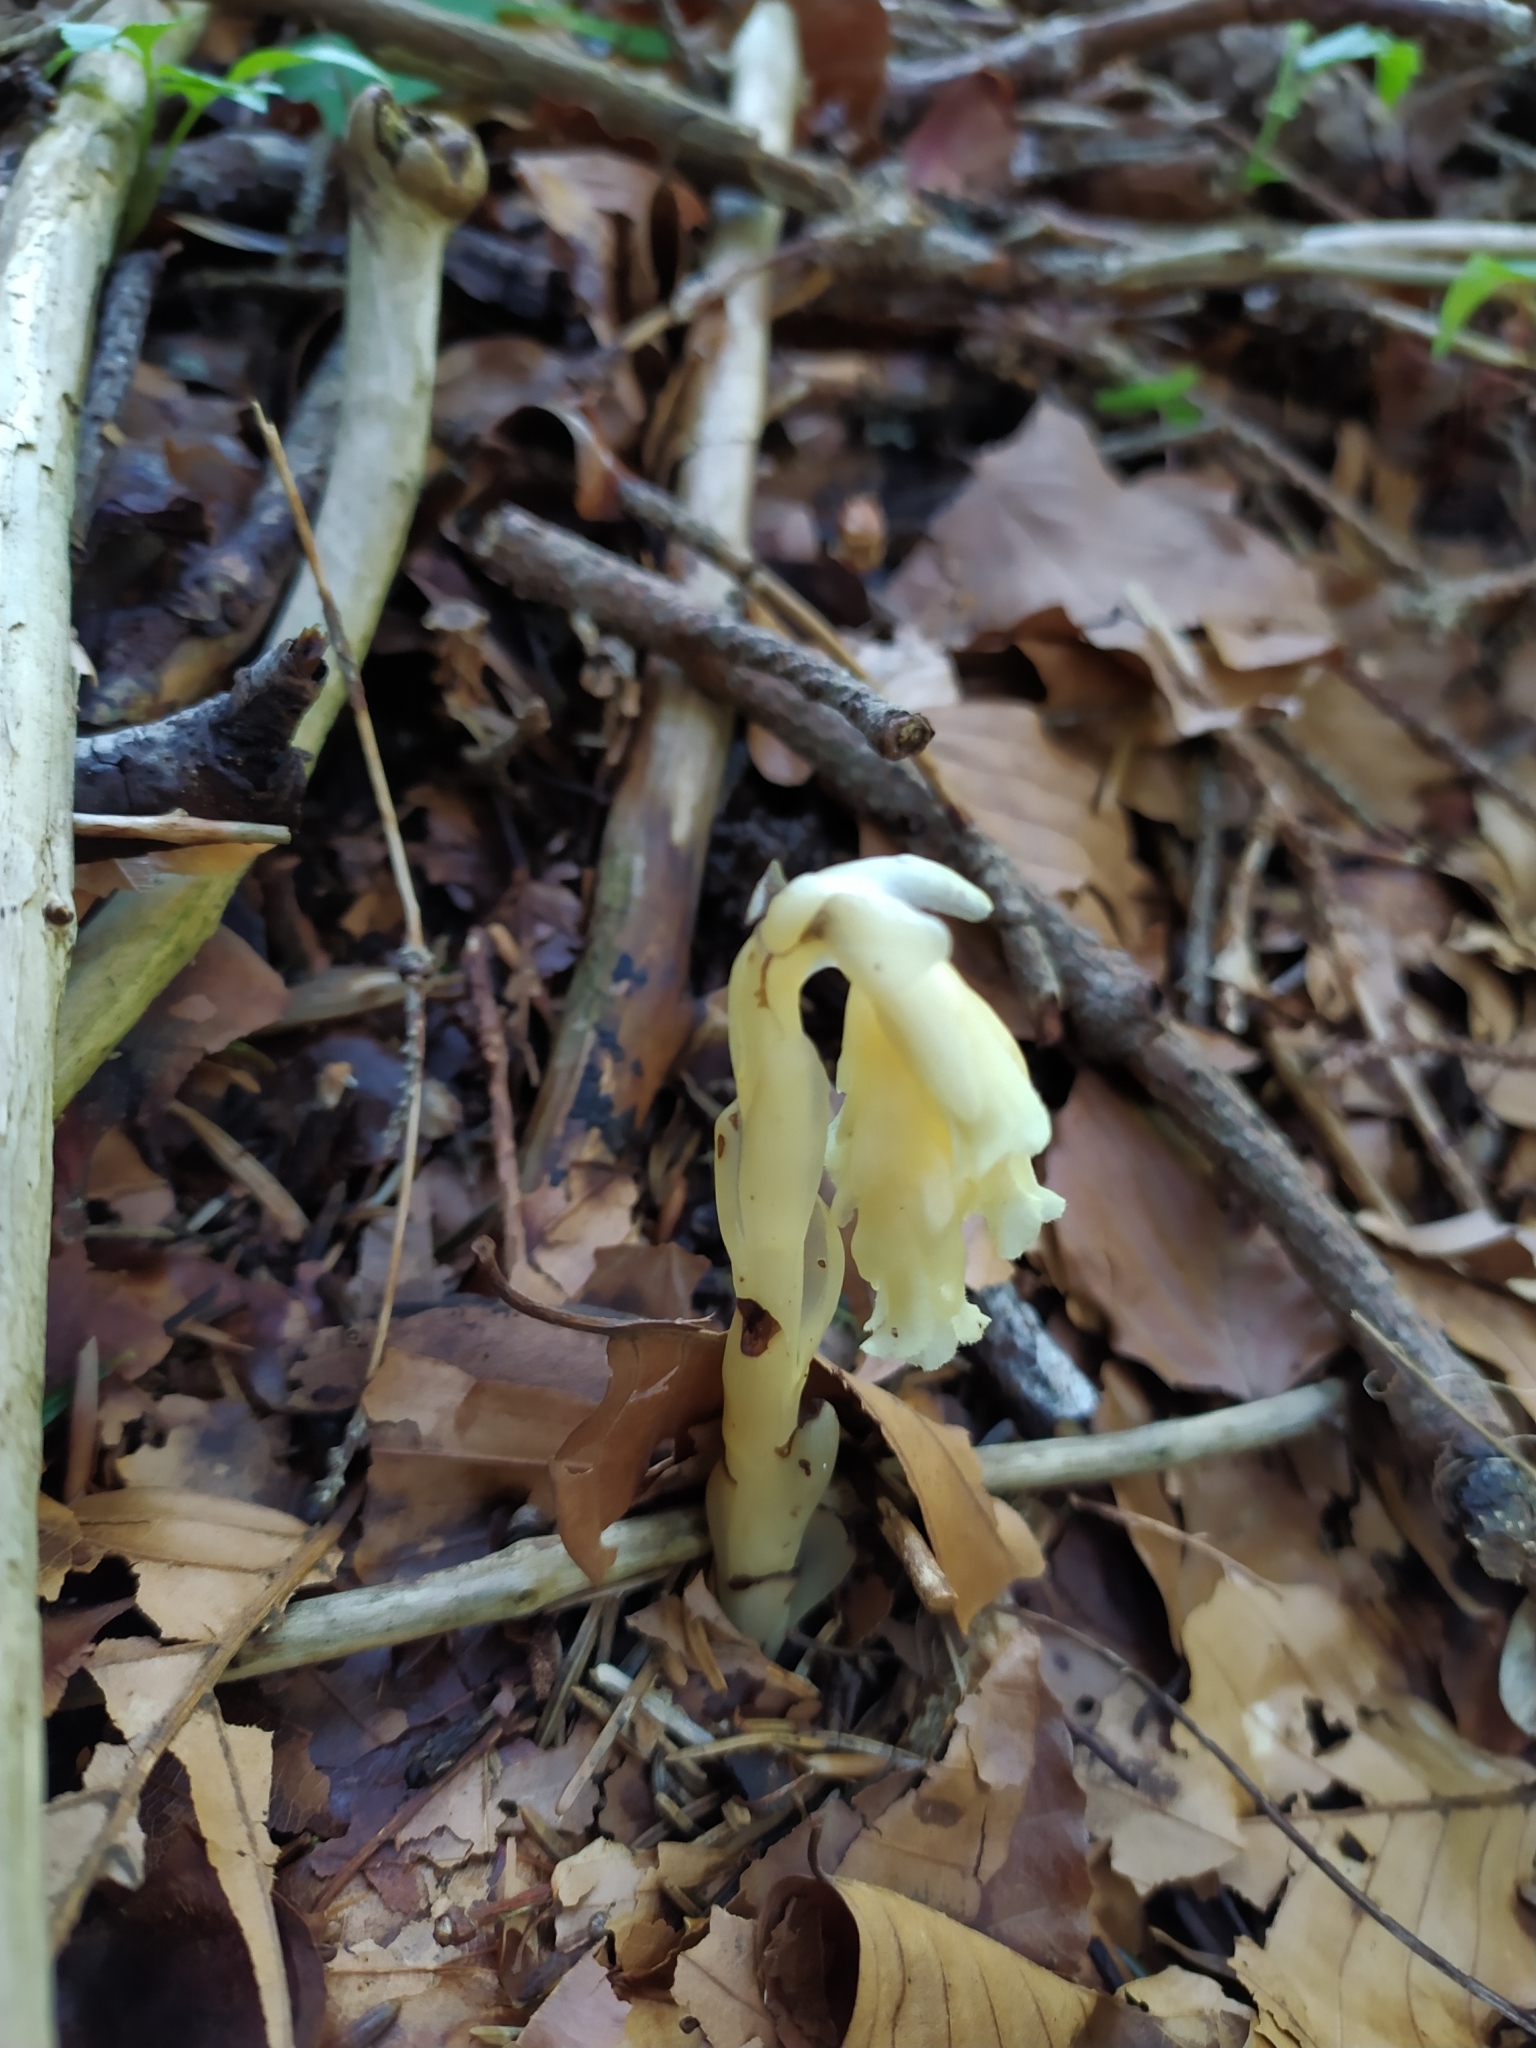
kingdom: Plantae
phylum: Tracheophyta
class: Magnoliopsida
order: Ericales
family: Ericaceae
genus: Hypopitys
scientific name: Hypopitys monotropa
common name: Yellow bird's-nest
